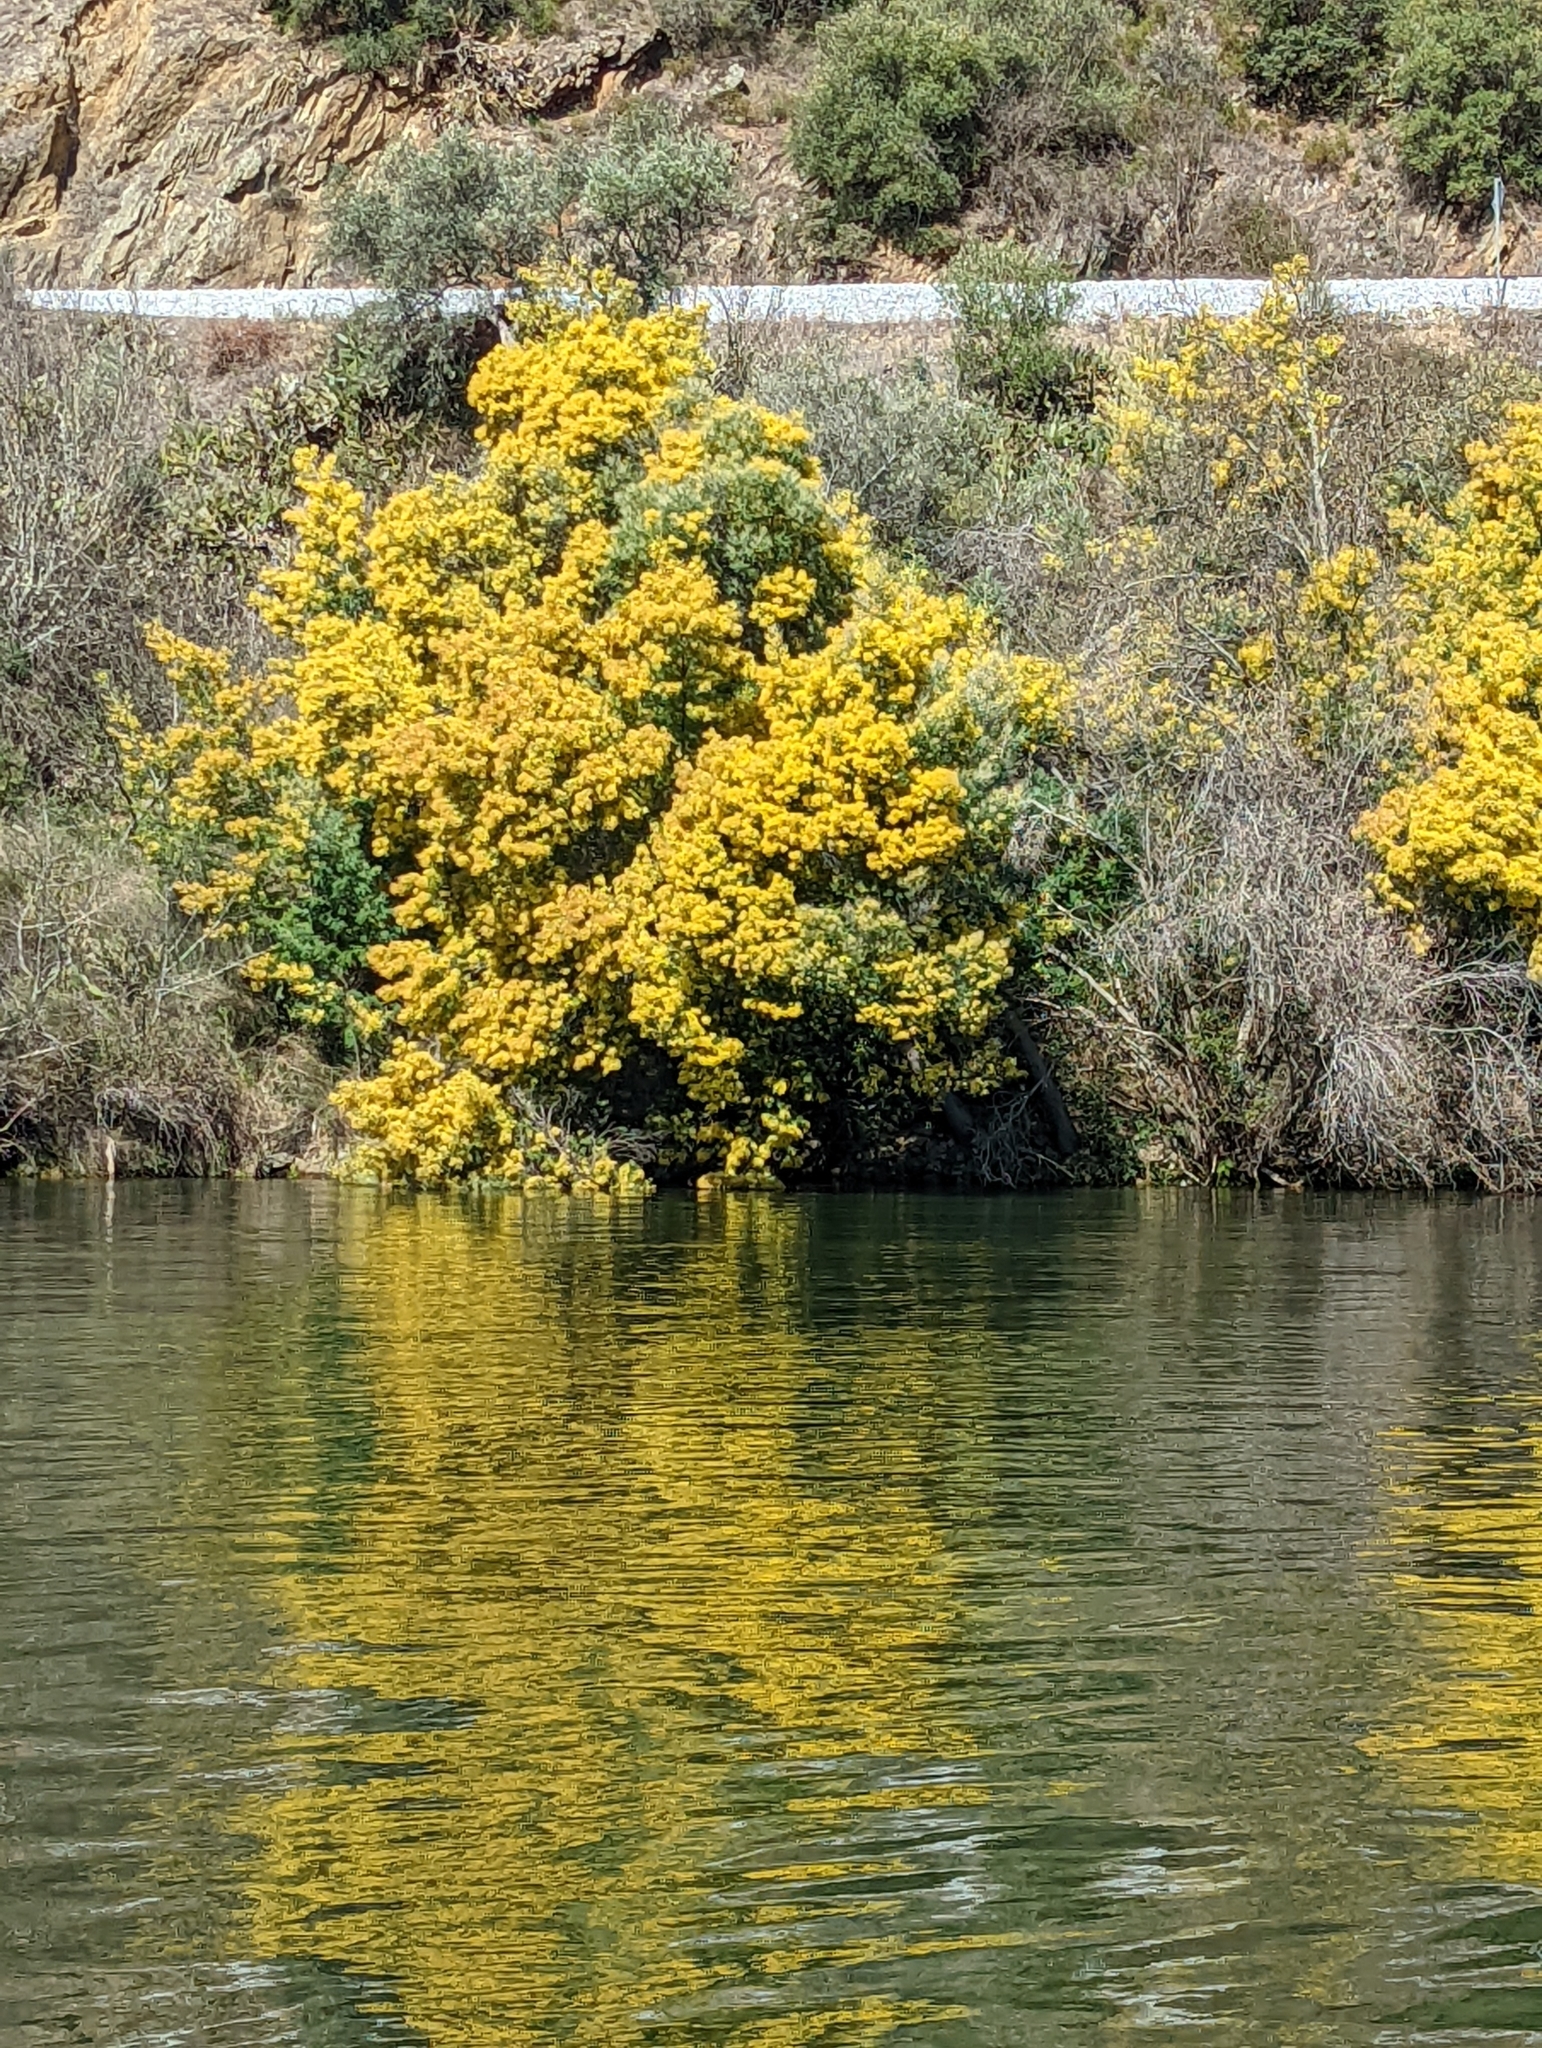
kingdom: Plantae
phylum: Tracheophyta
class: Magnoliopsida
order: Fabales
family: Fabaceae
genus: Acacia
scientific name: Acacia dealbata
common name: Silver wattle
